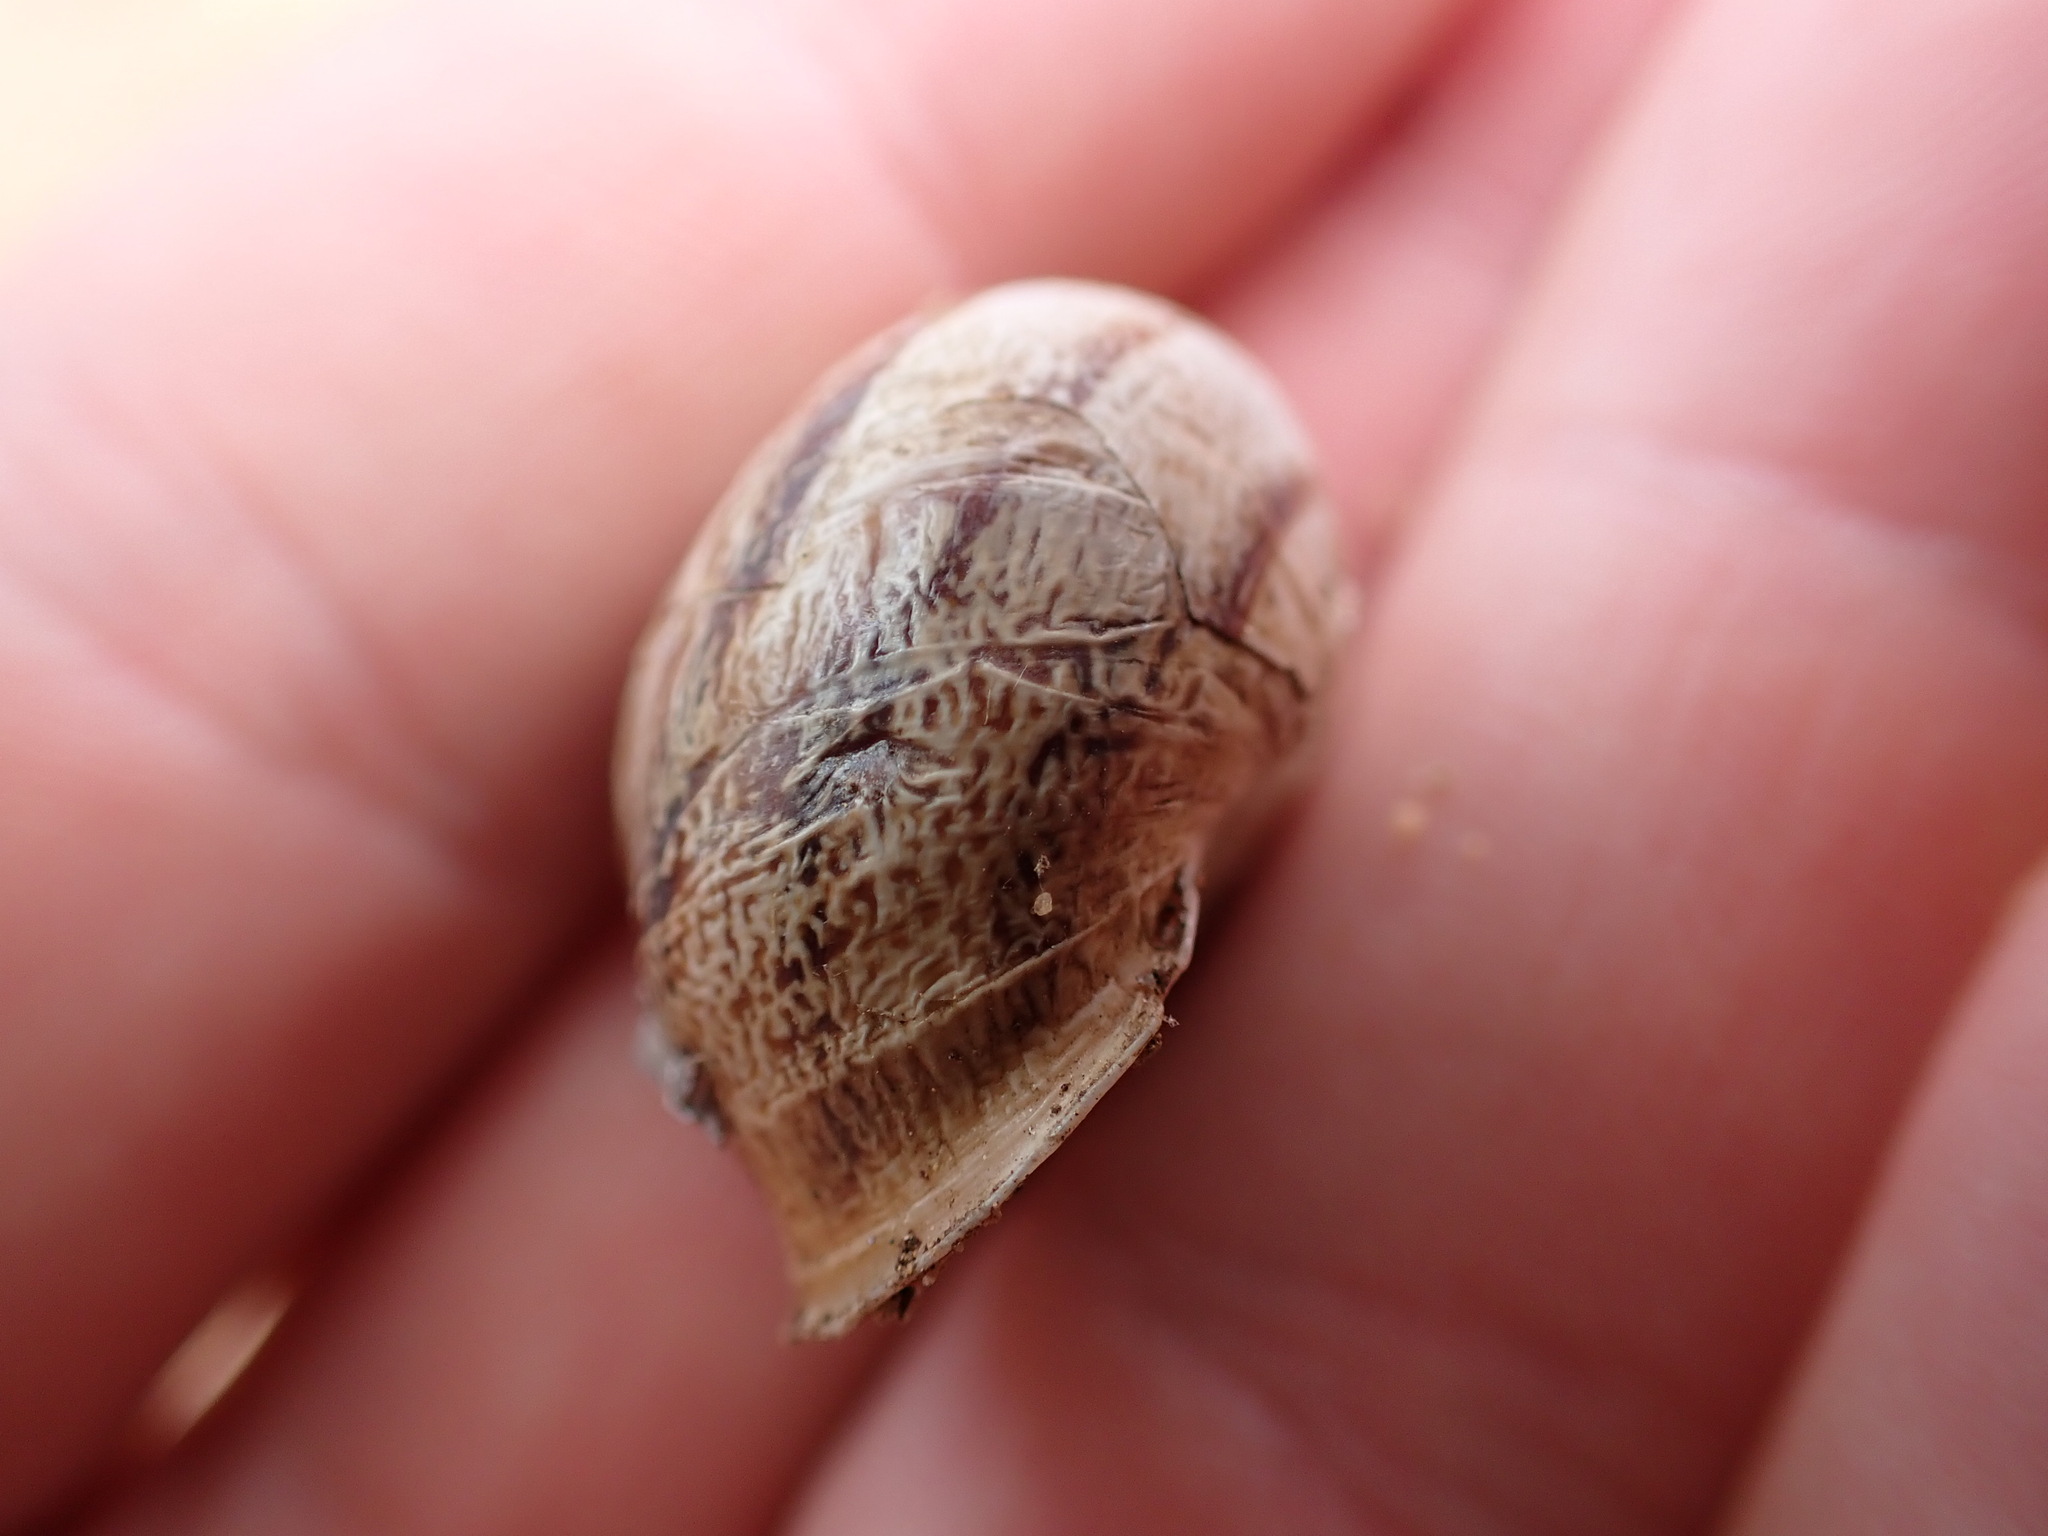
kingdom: Animalia
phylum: Mollusca
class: Gastropoda
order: Stylommatophora
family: Helicidae
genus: Eobania
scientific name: Eobania vermiculata
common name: Chocolateband snail
